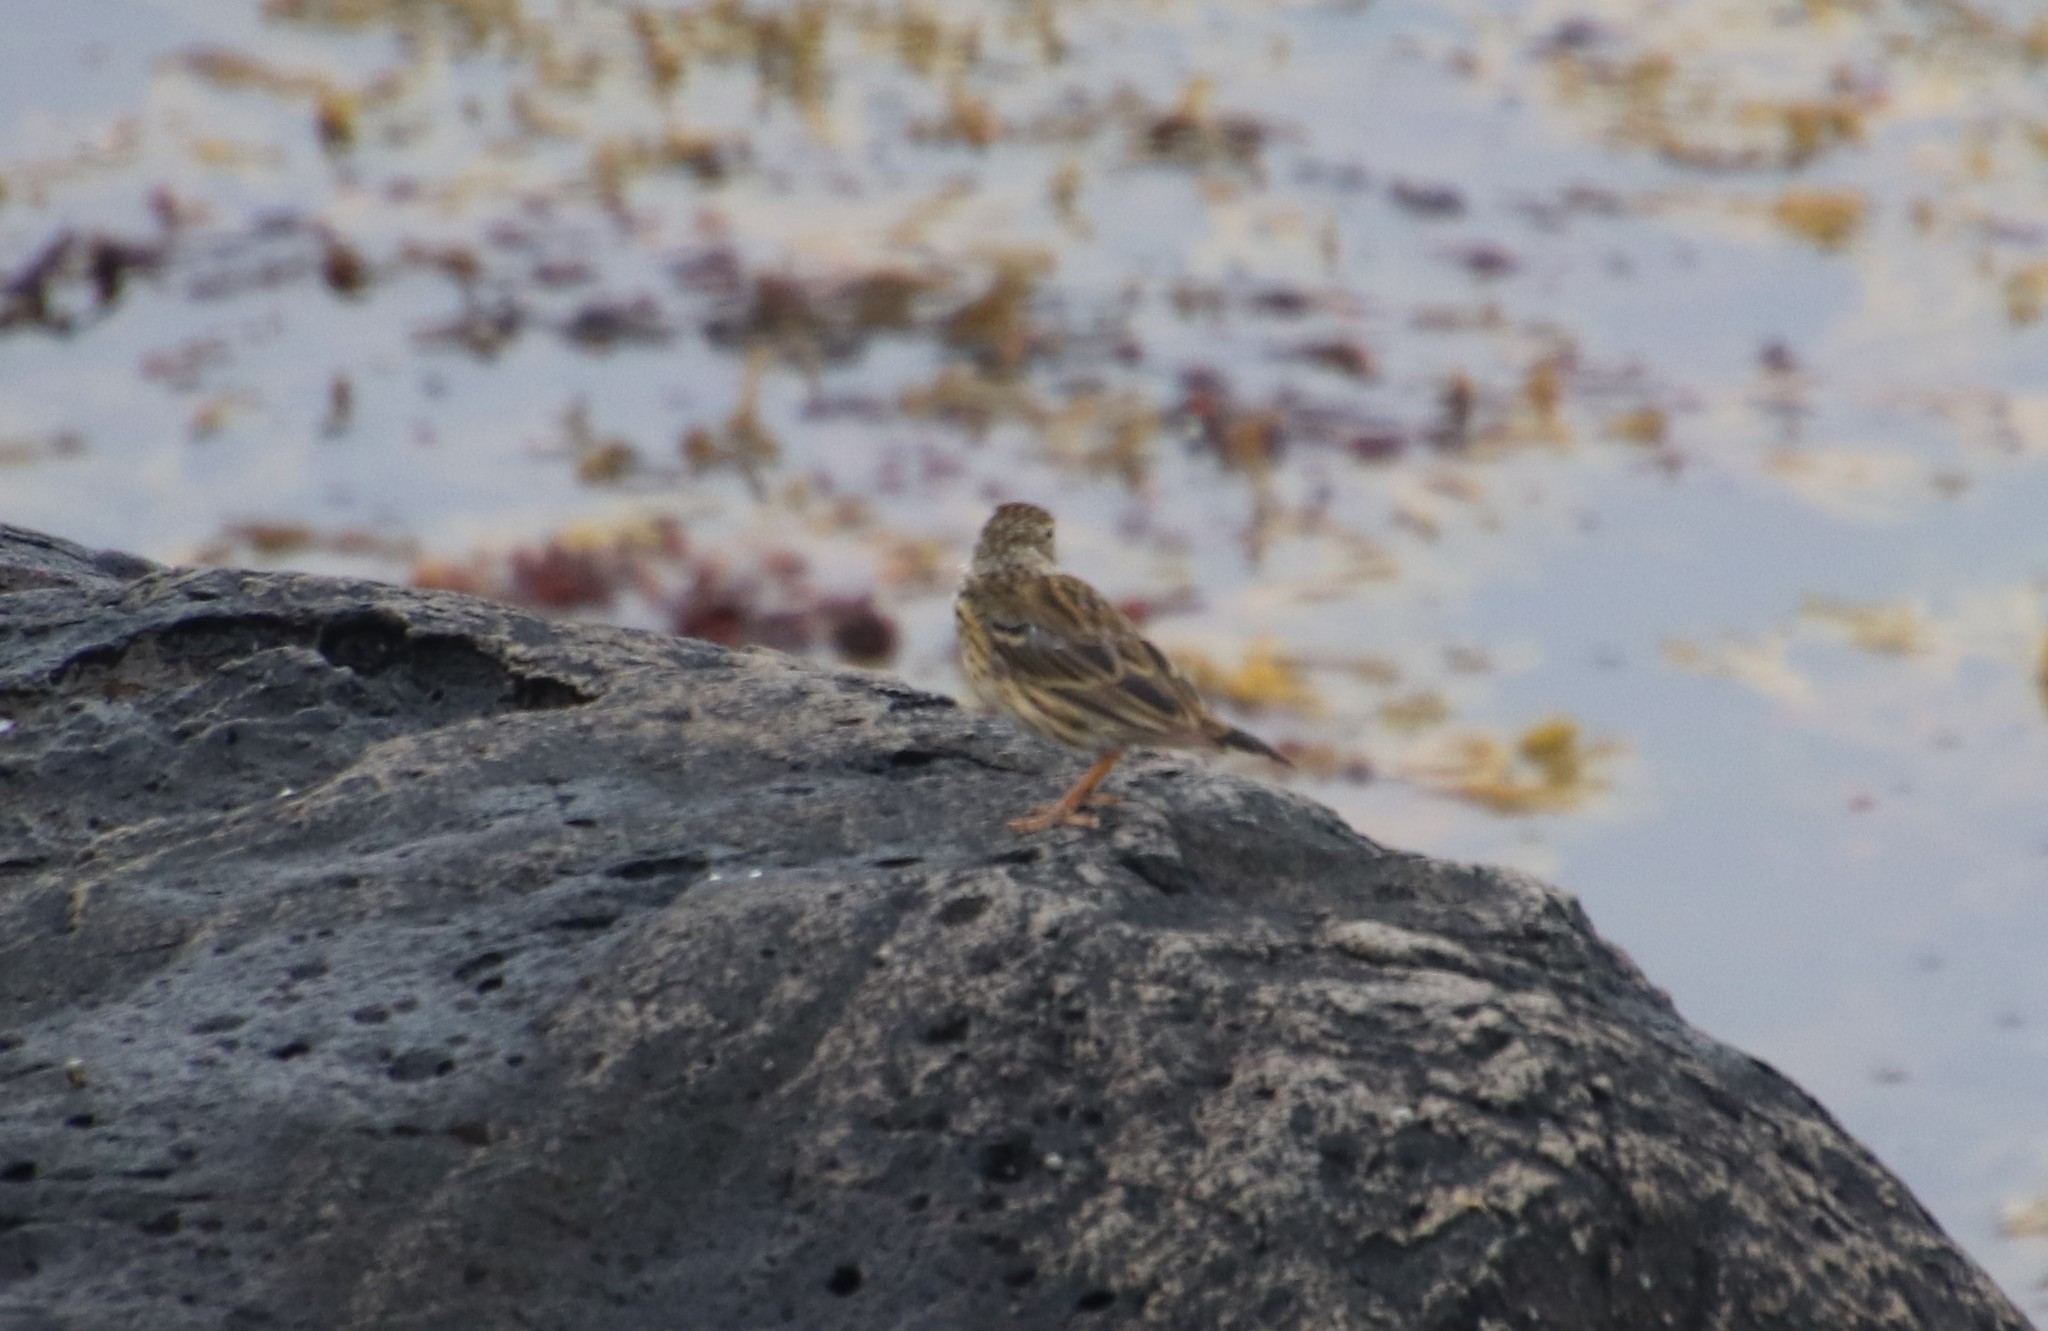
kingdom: Animalia
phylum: Chordata
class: Aves
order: Passeriformes
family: Motacillidae
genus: Anthus
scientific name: Anthus pratensis
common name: Meadow pipit
